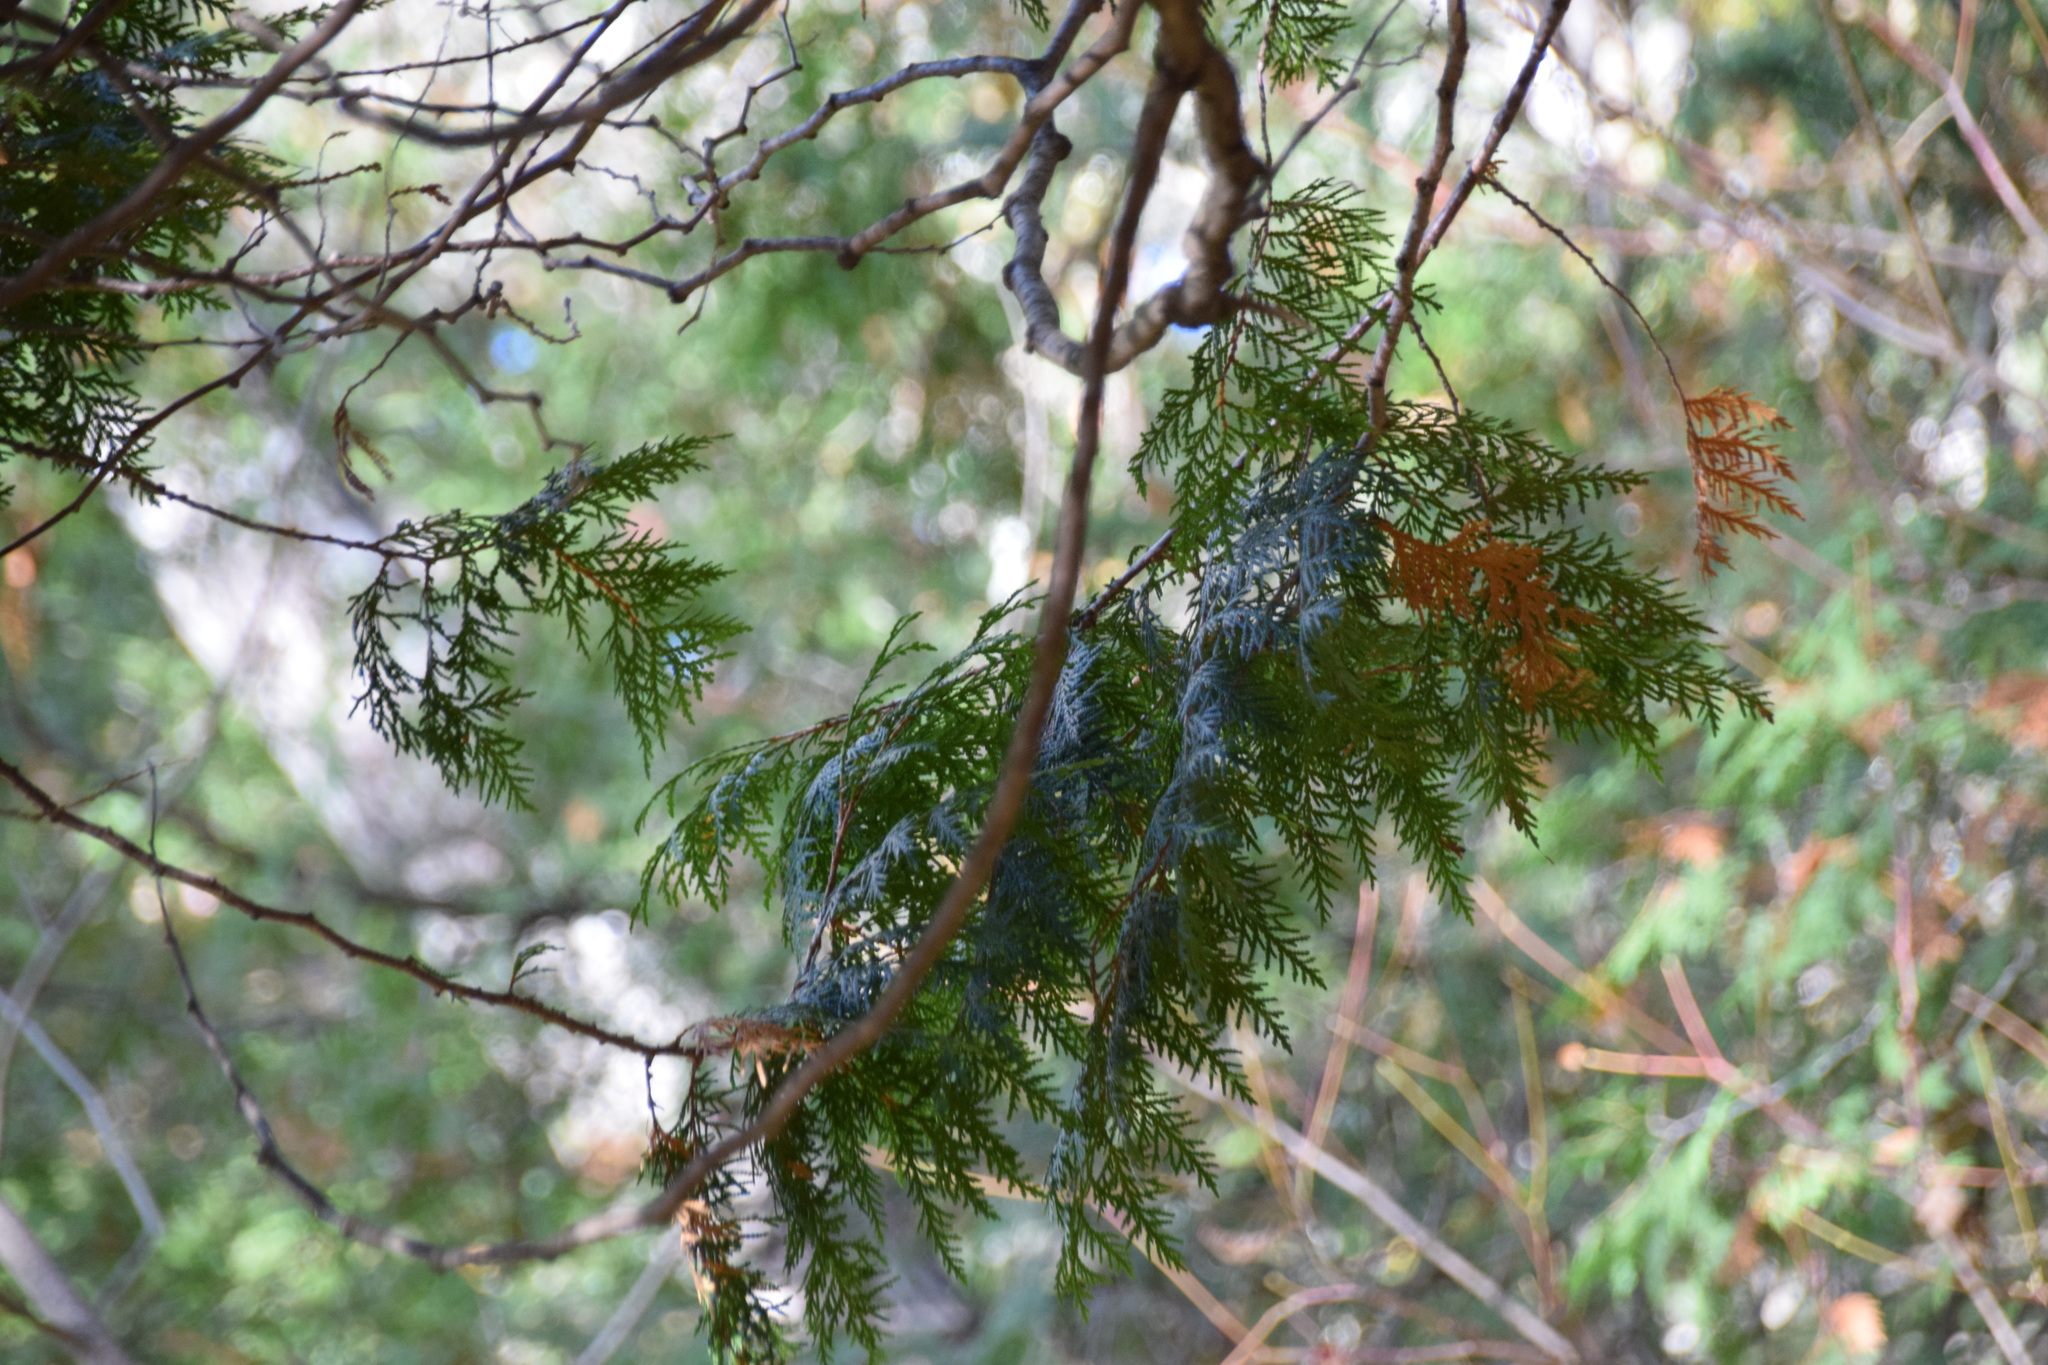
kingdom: Plantae
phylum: Tracheophyta
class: Pinopsida
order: Pinales
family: Cupressaceae
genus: Thuja
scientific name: Thuja occidentalis
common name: Northern white-cedar
